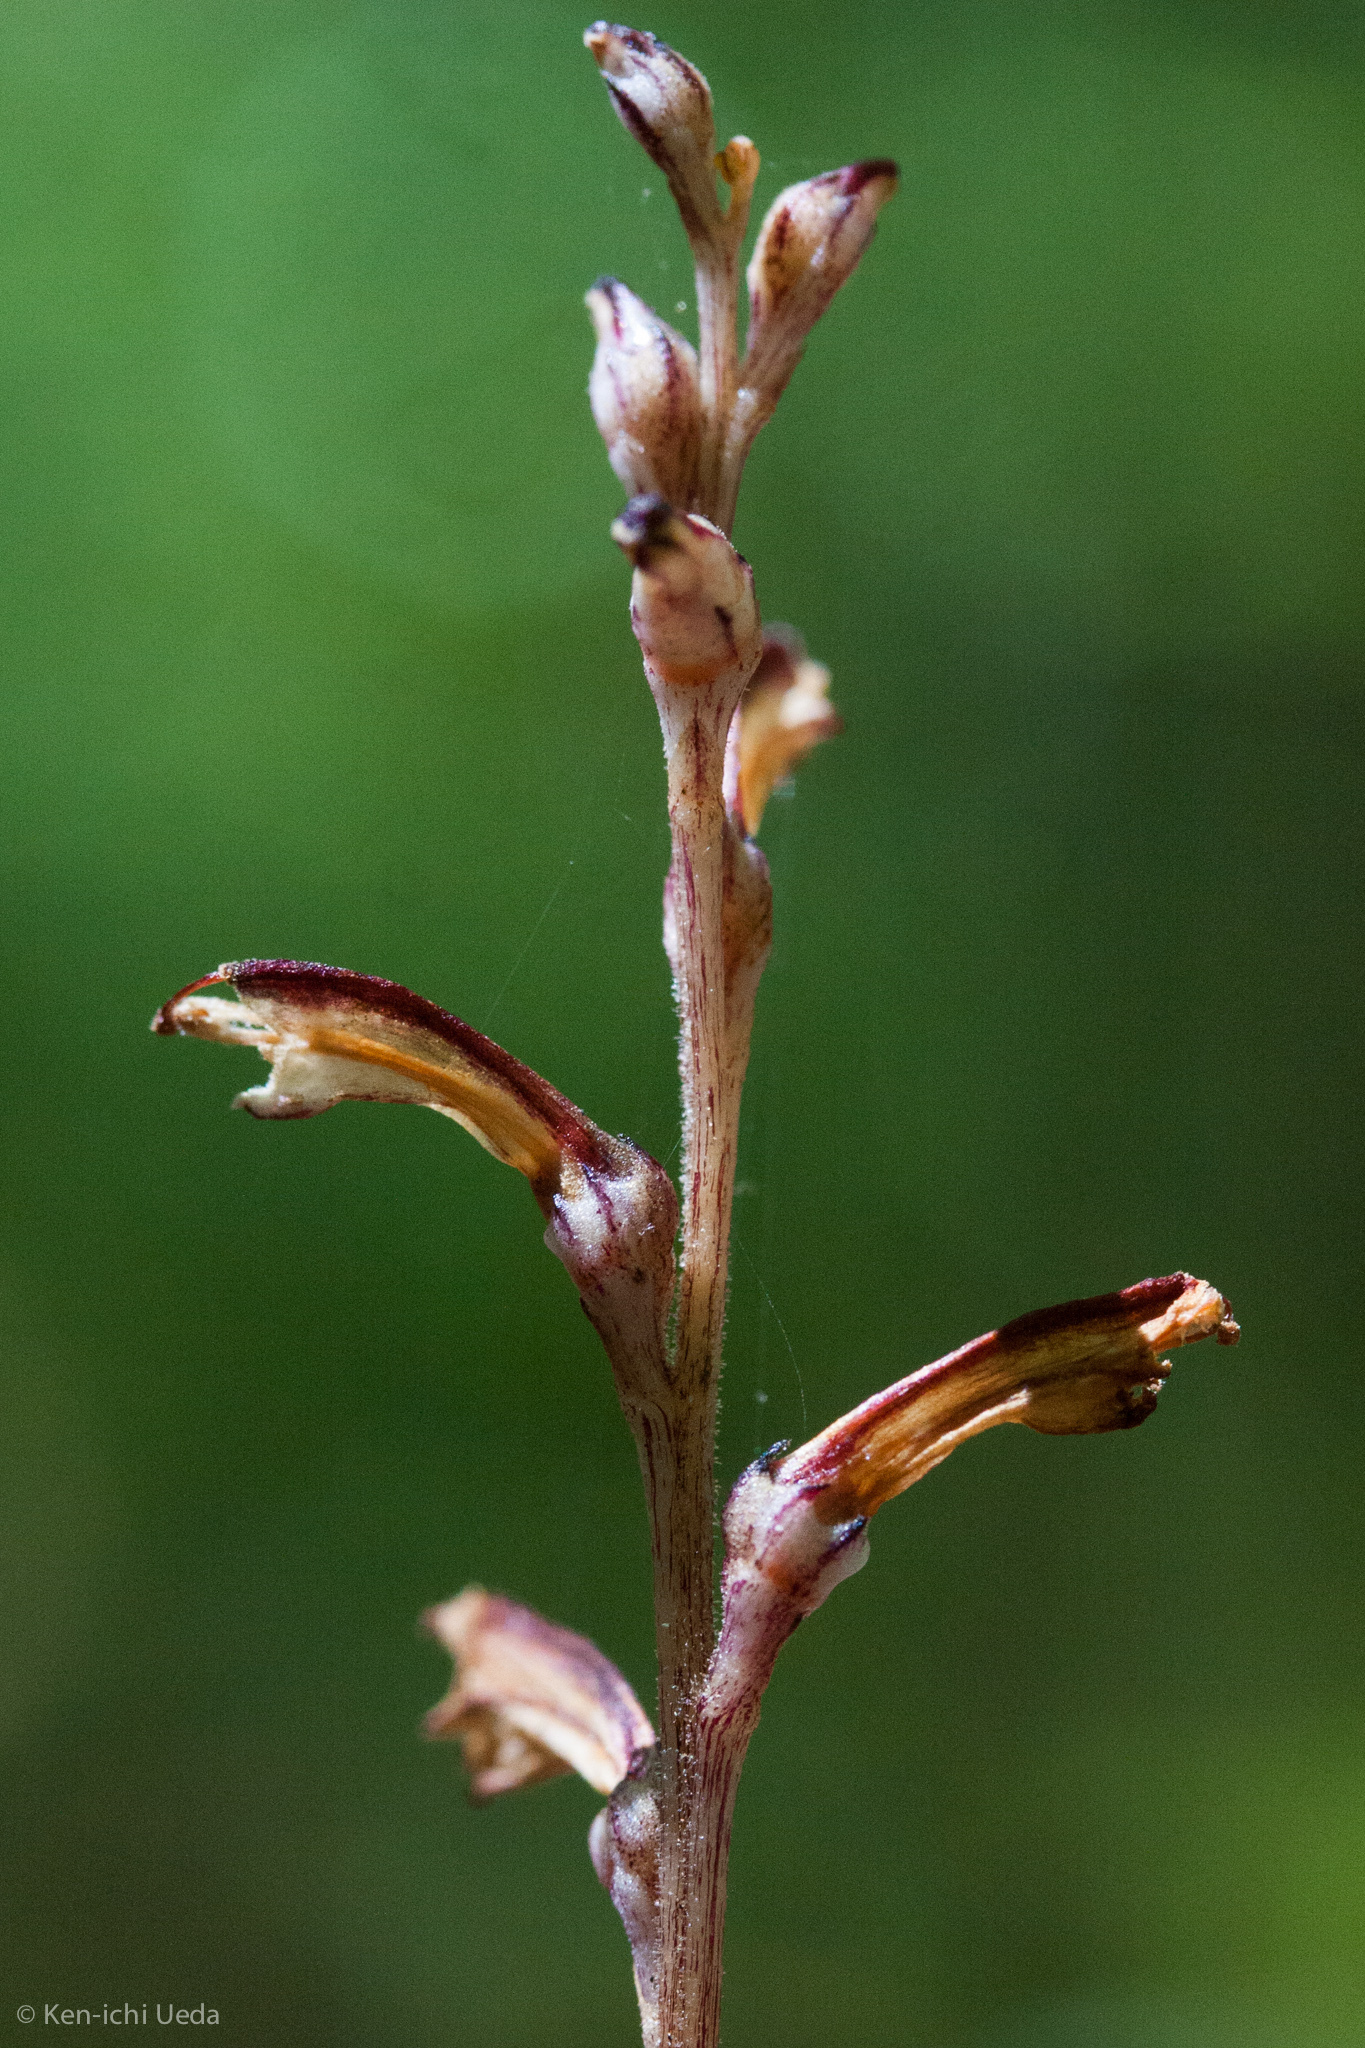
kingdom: Plantae
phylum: Tracheophyta
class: Magnoliopsida
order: Lamiales
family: Orobanchaceae
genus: Epifagus
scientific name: Epifagus virginiana
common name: Beechdrops
